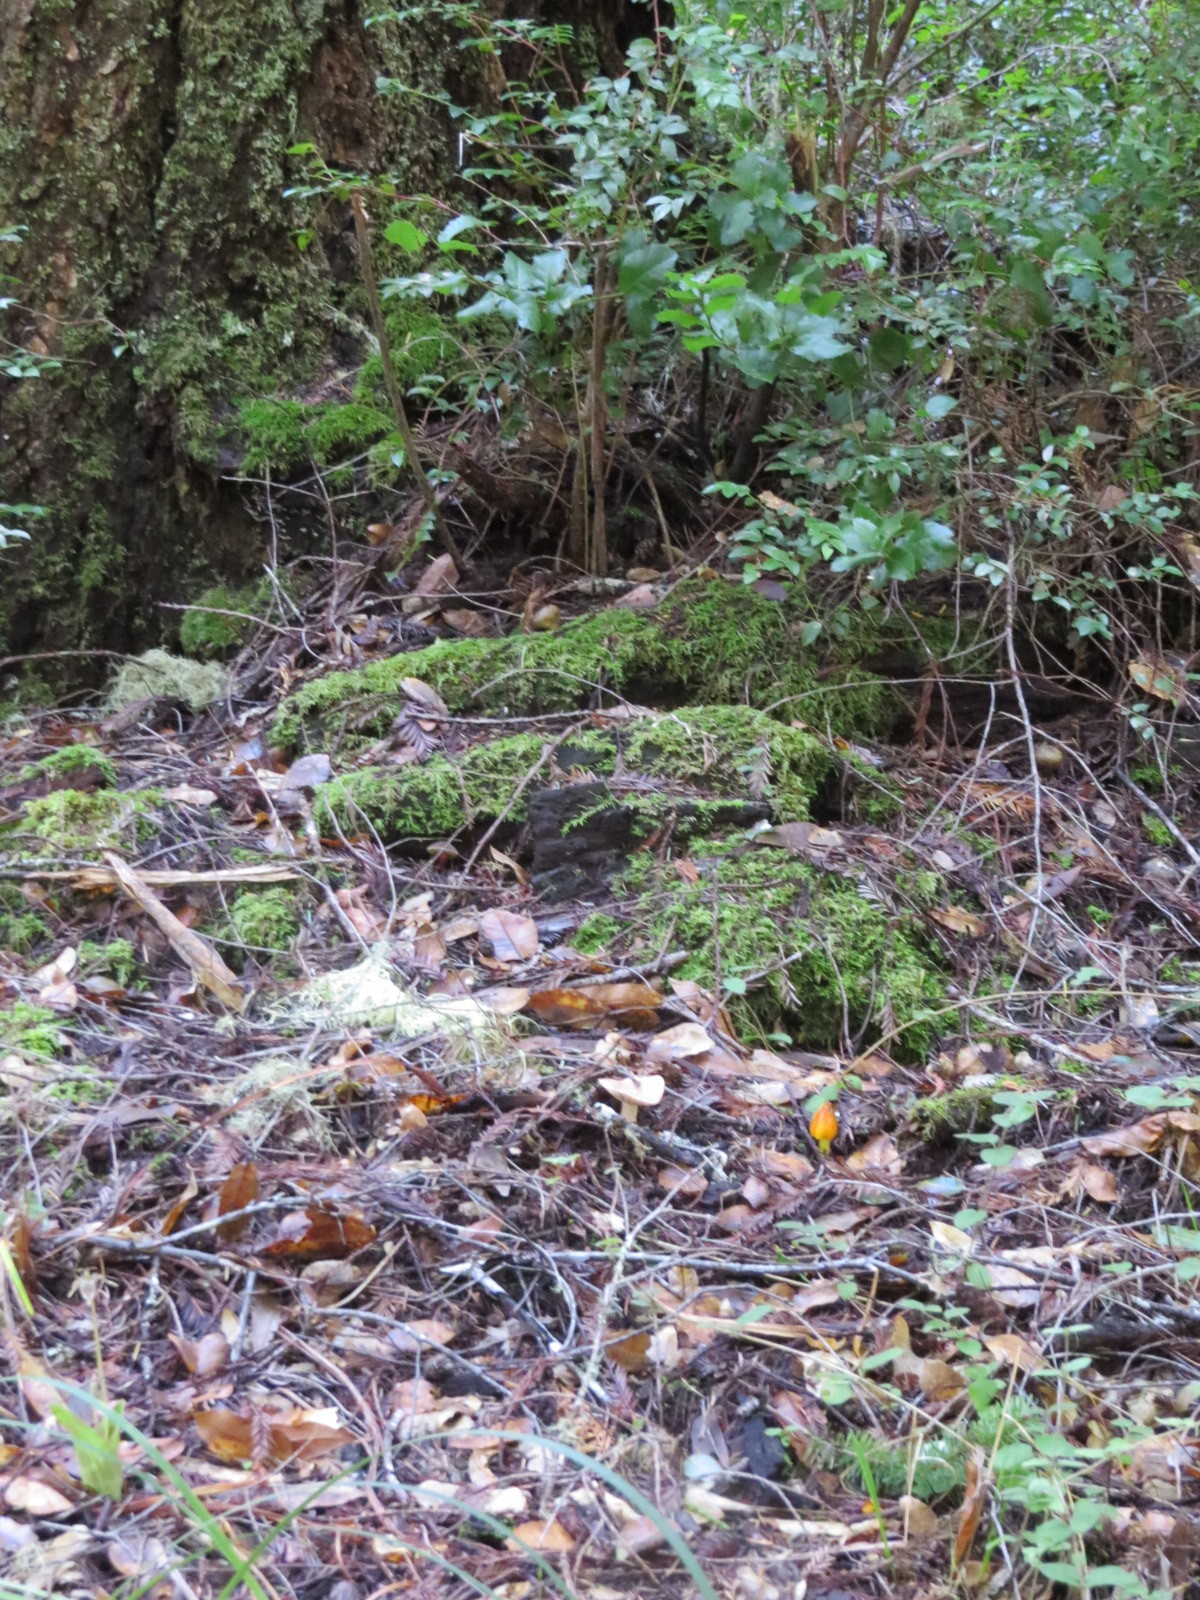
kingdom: Fungi
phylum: Basidiomycota
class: Agaricomycetes
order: Agaricales
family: Hygrophoraceae
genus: Hygrocybe
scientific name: Hygrocybe singeri
